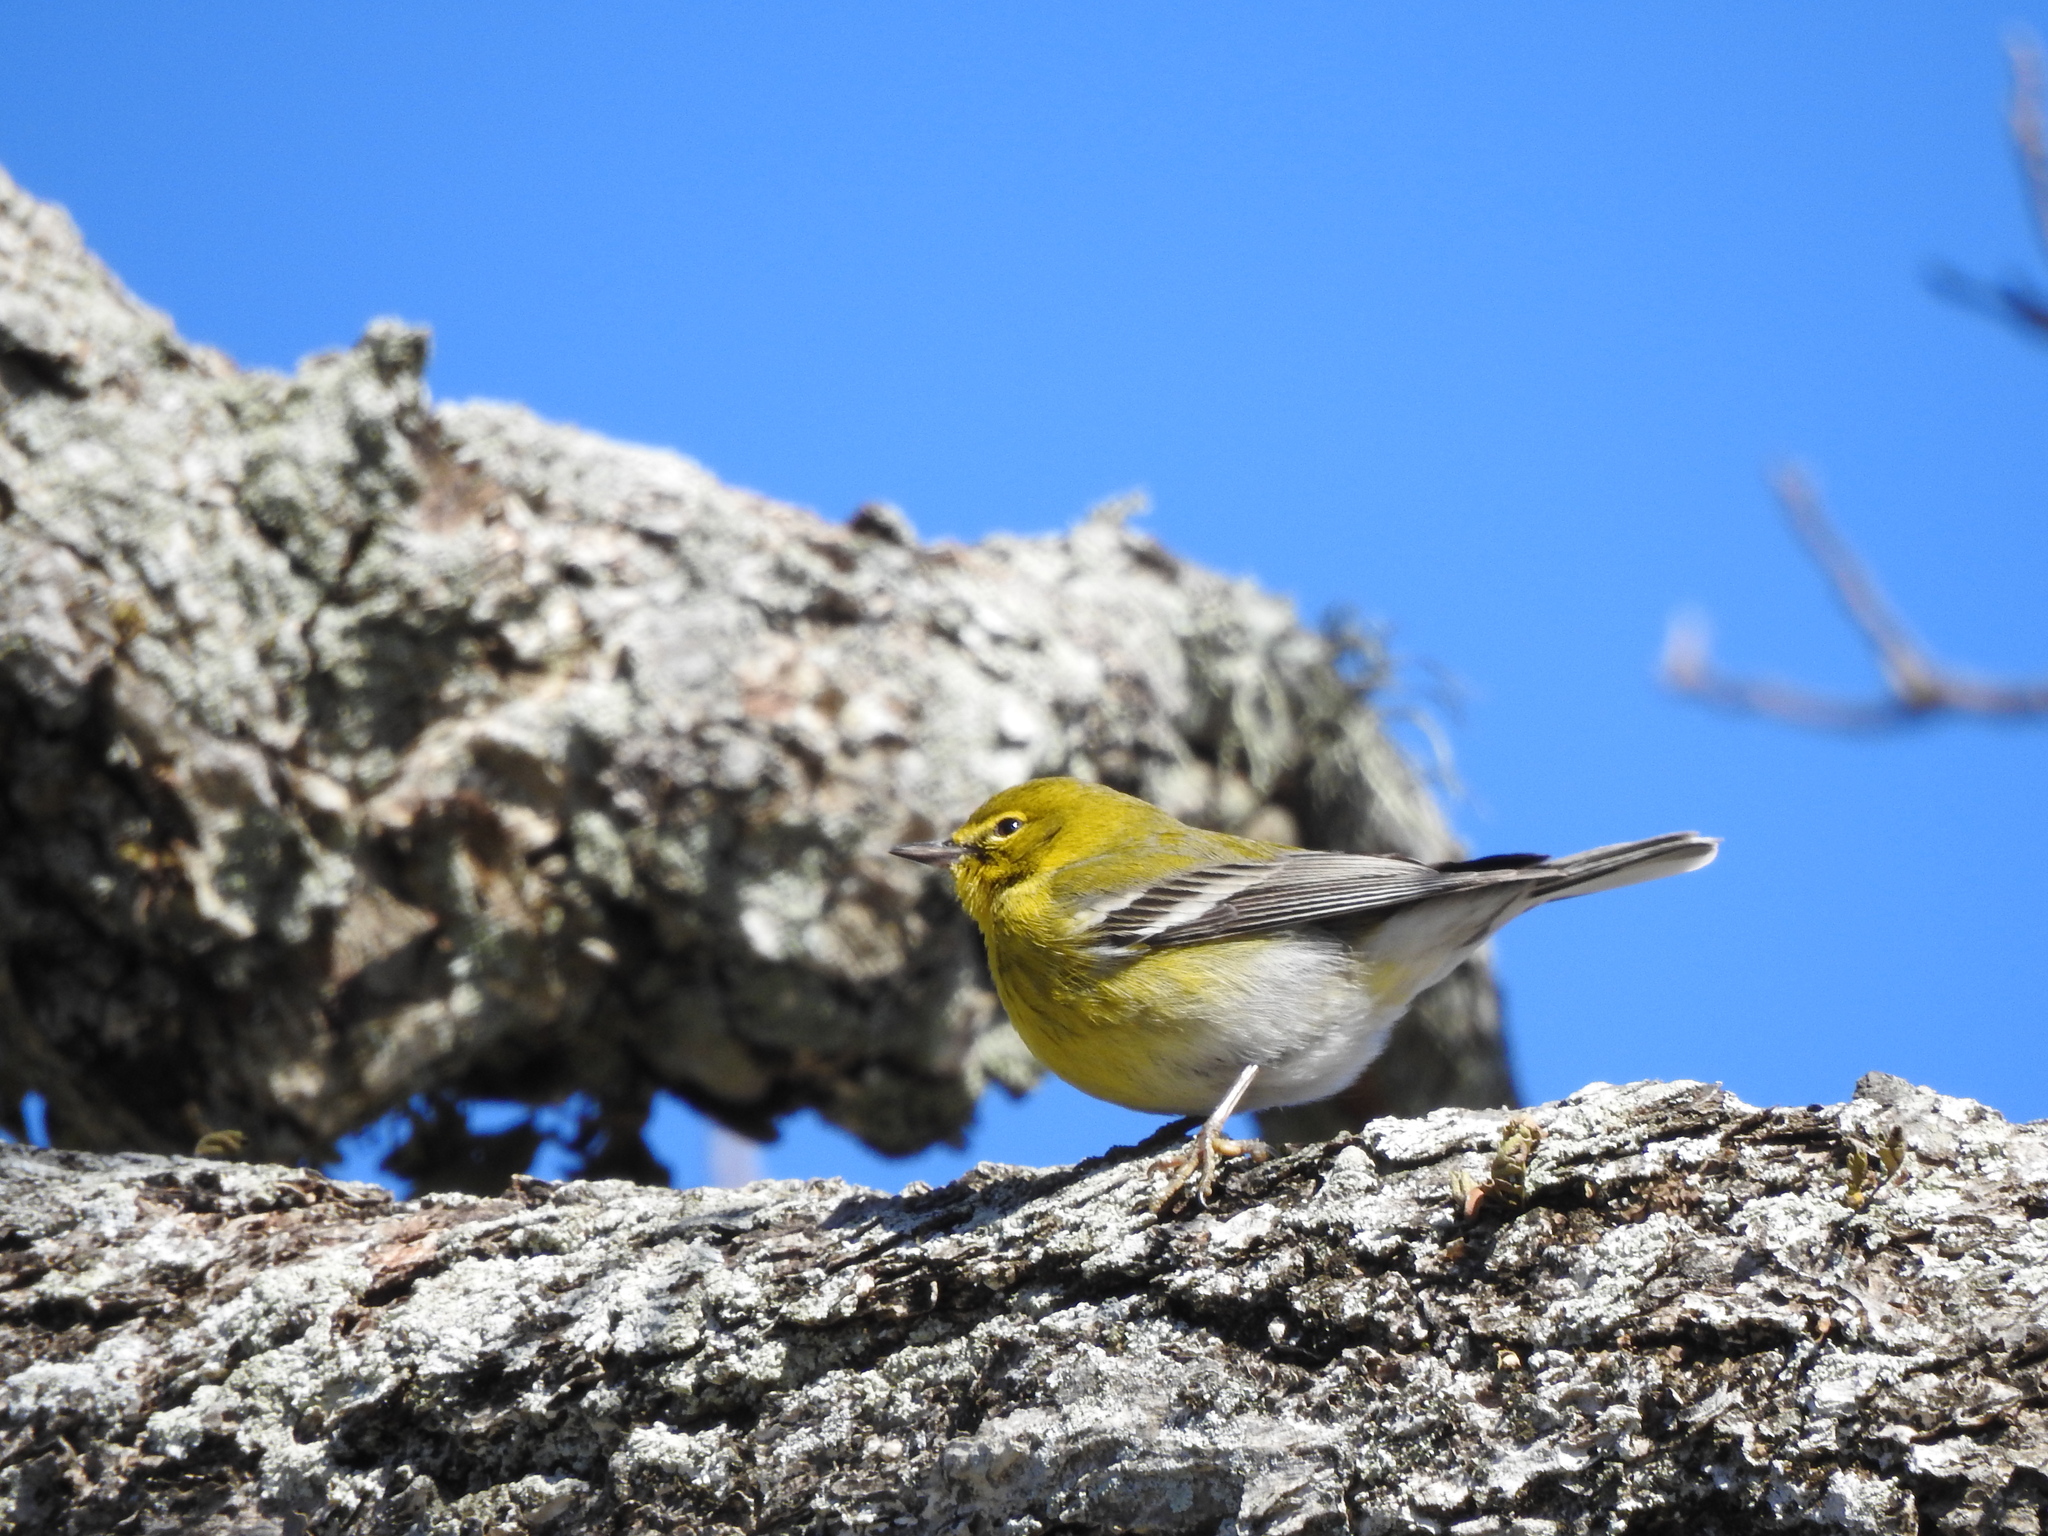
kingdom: Animalia
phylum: Chordata
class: Aves
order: Passeriformes
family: Parulidae
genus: Setophaga
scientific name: Setophaga pinus
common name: Pine warbler
